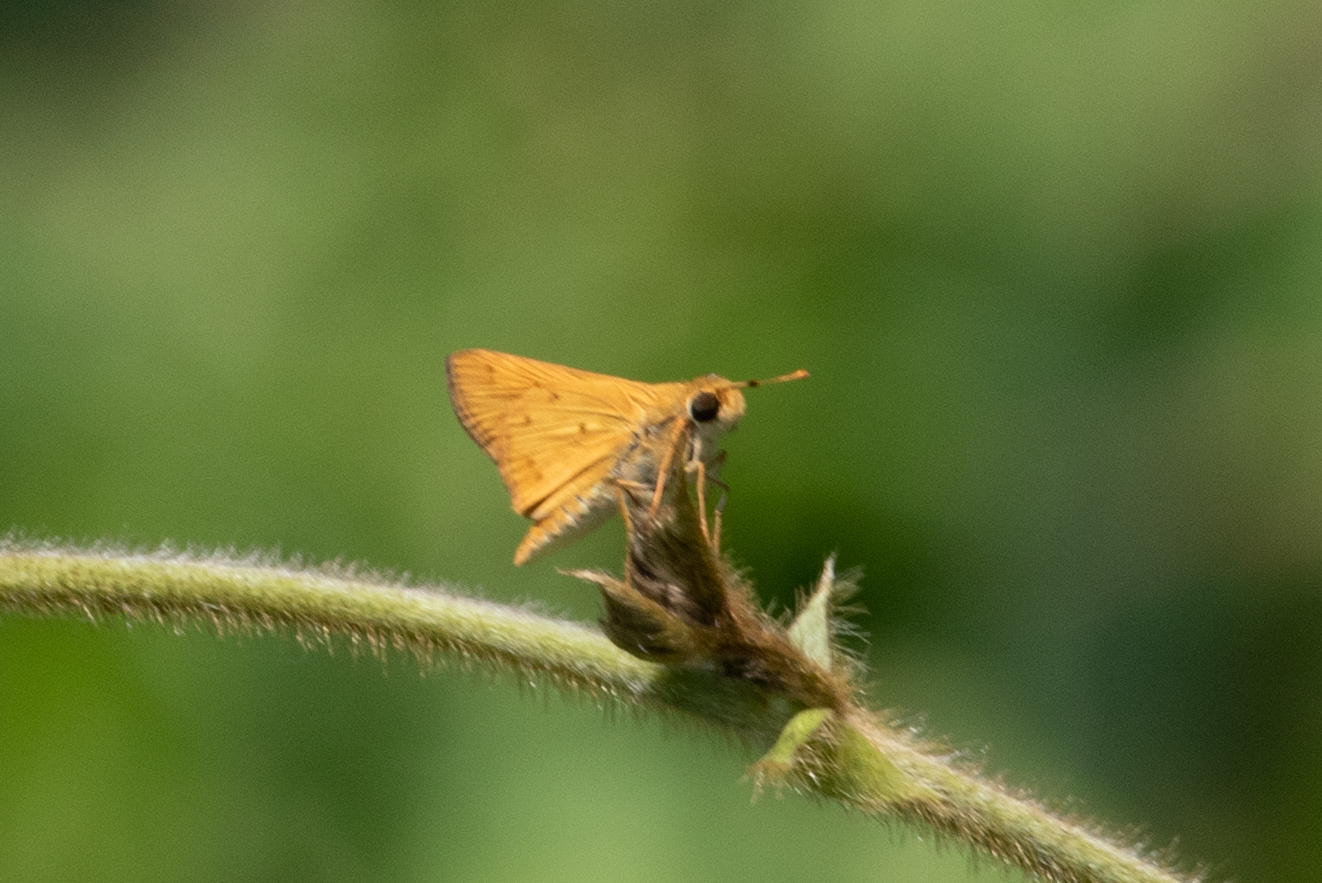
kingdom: Animalia
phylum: Arthropoda
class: Insecta
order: Lepidoptera
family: Hesperiidae
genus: Hylephila
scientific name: Hylephila phyleus
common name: Fiery skipper
